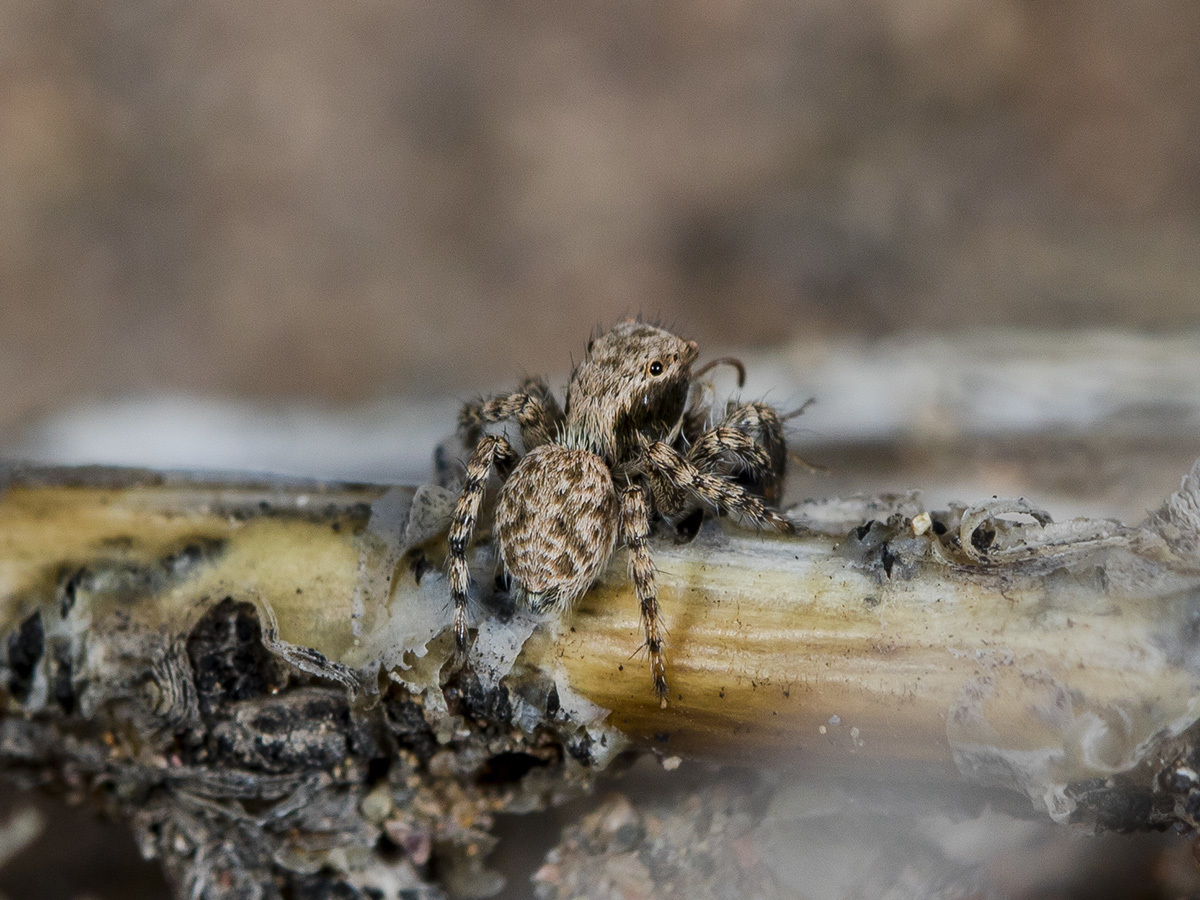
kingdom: Animalia
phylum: Arthropoda
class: Arachnida
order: Araneae
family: Salticidae
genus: Aelurillus
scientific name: Aelurillus andreevae
